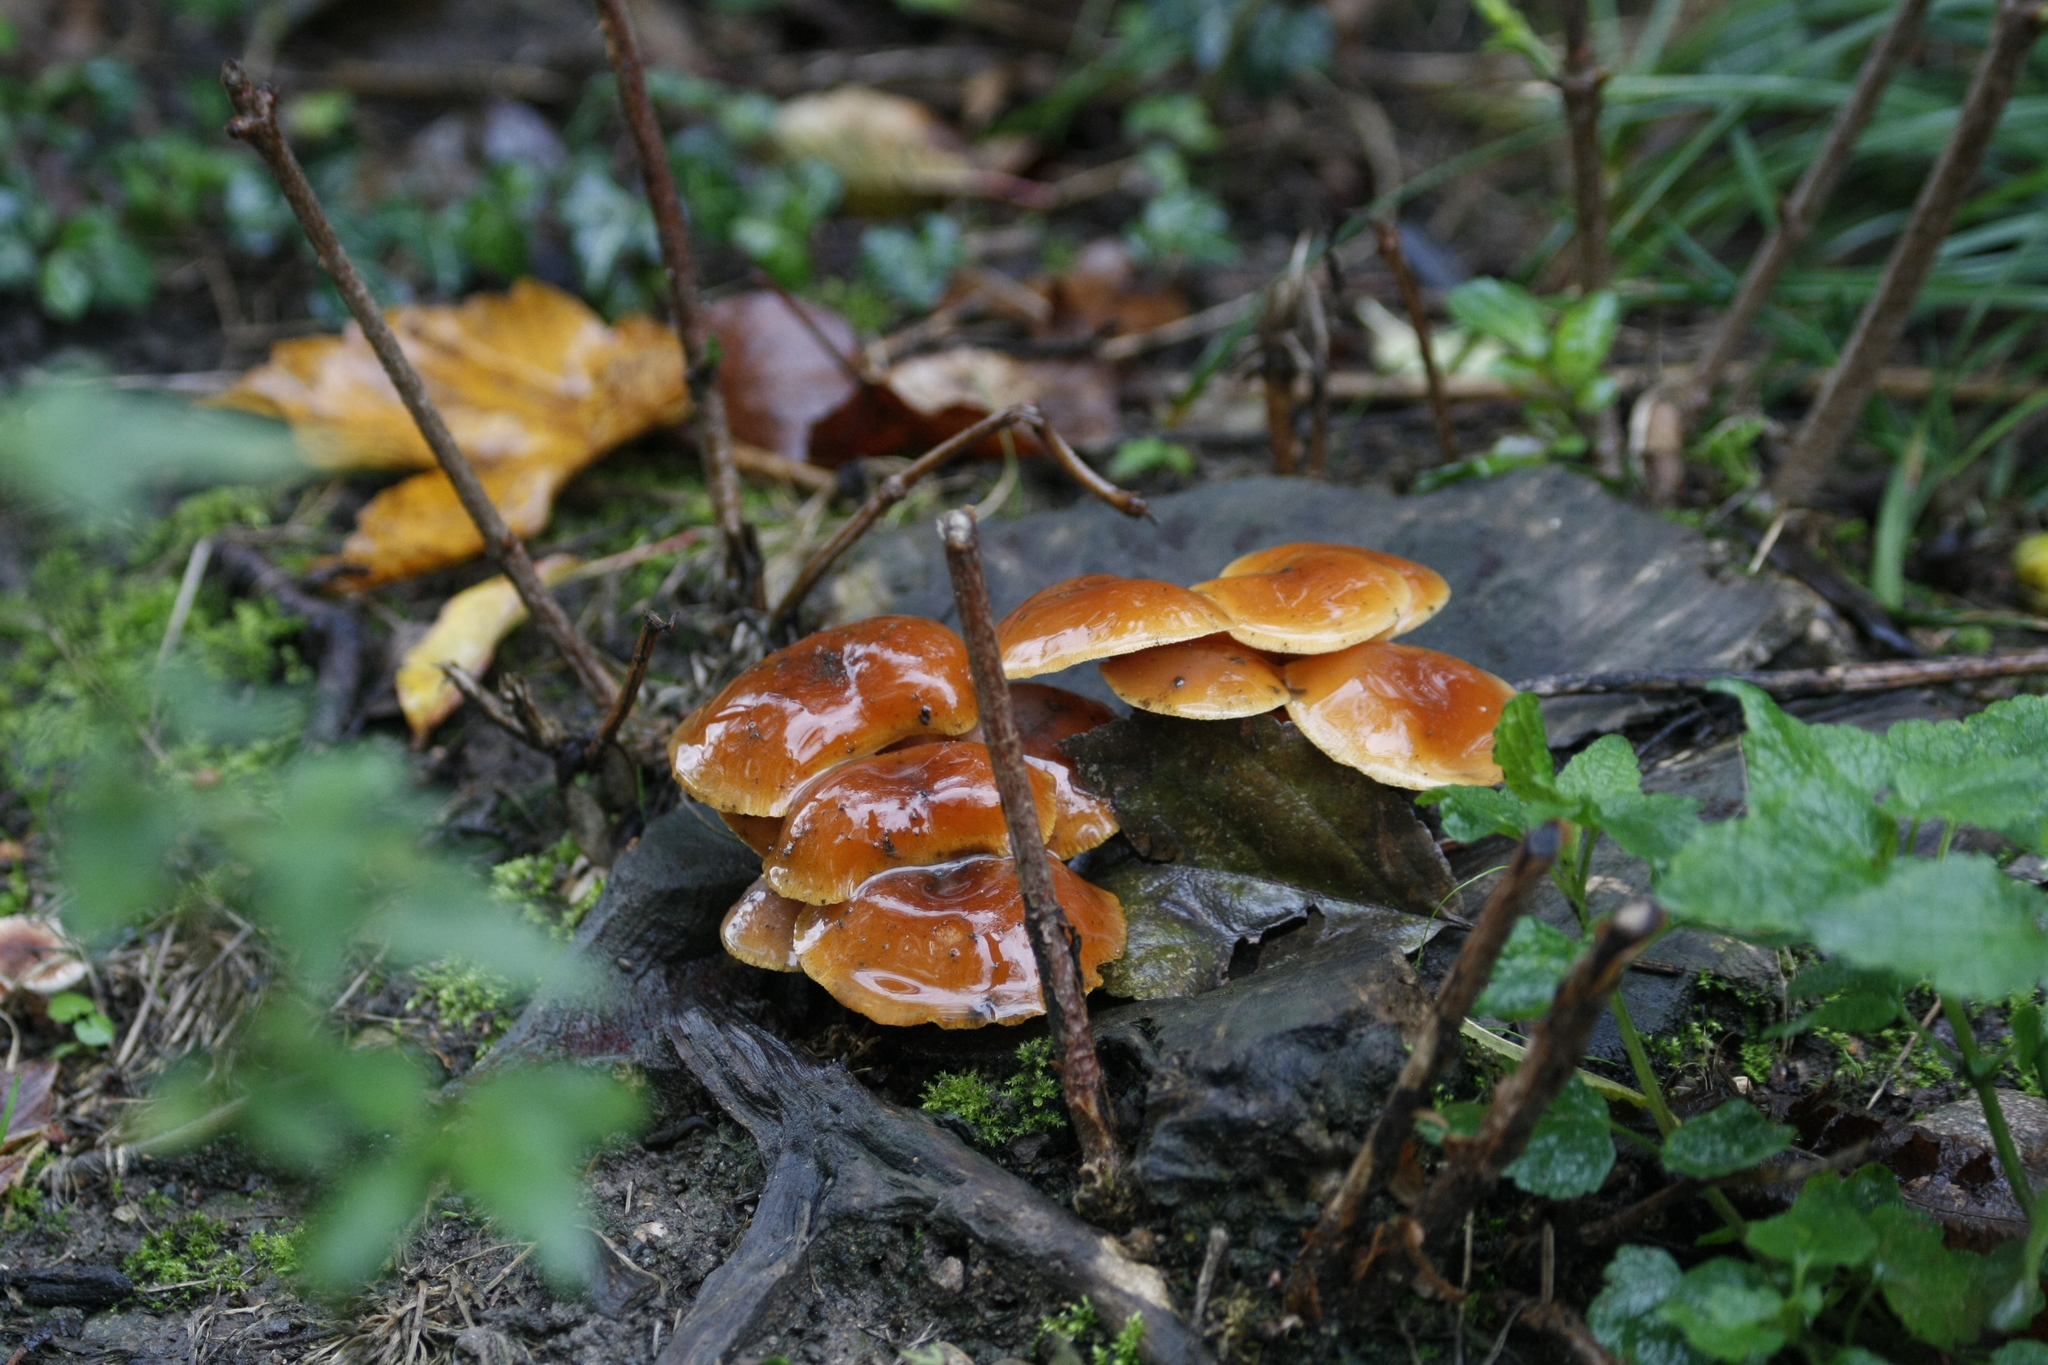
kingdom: Fungi
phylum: Basidiomycota
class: Agaricomycetes
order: Agaricales
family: Physalacriaceae
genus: Flammulina
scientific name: Flammulina
